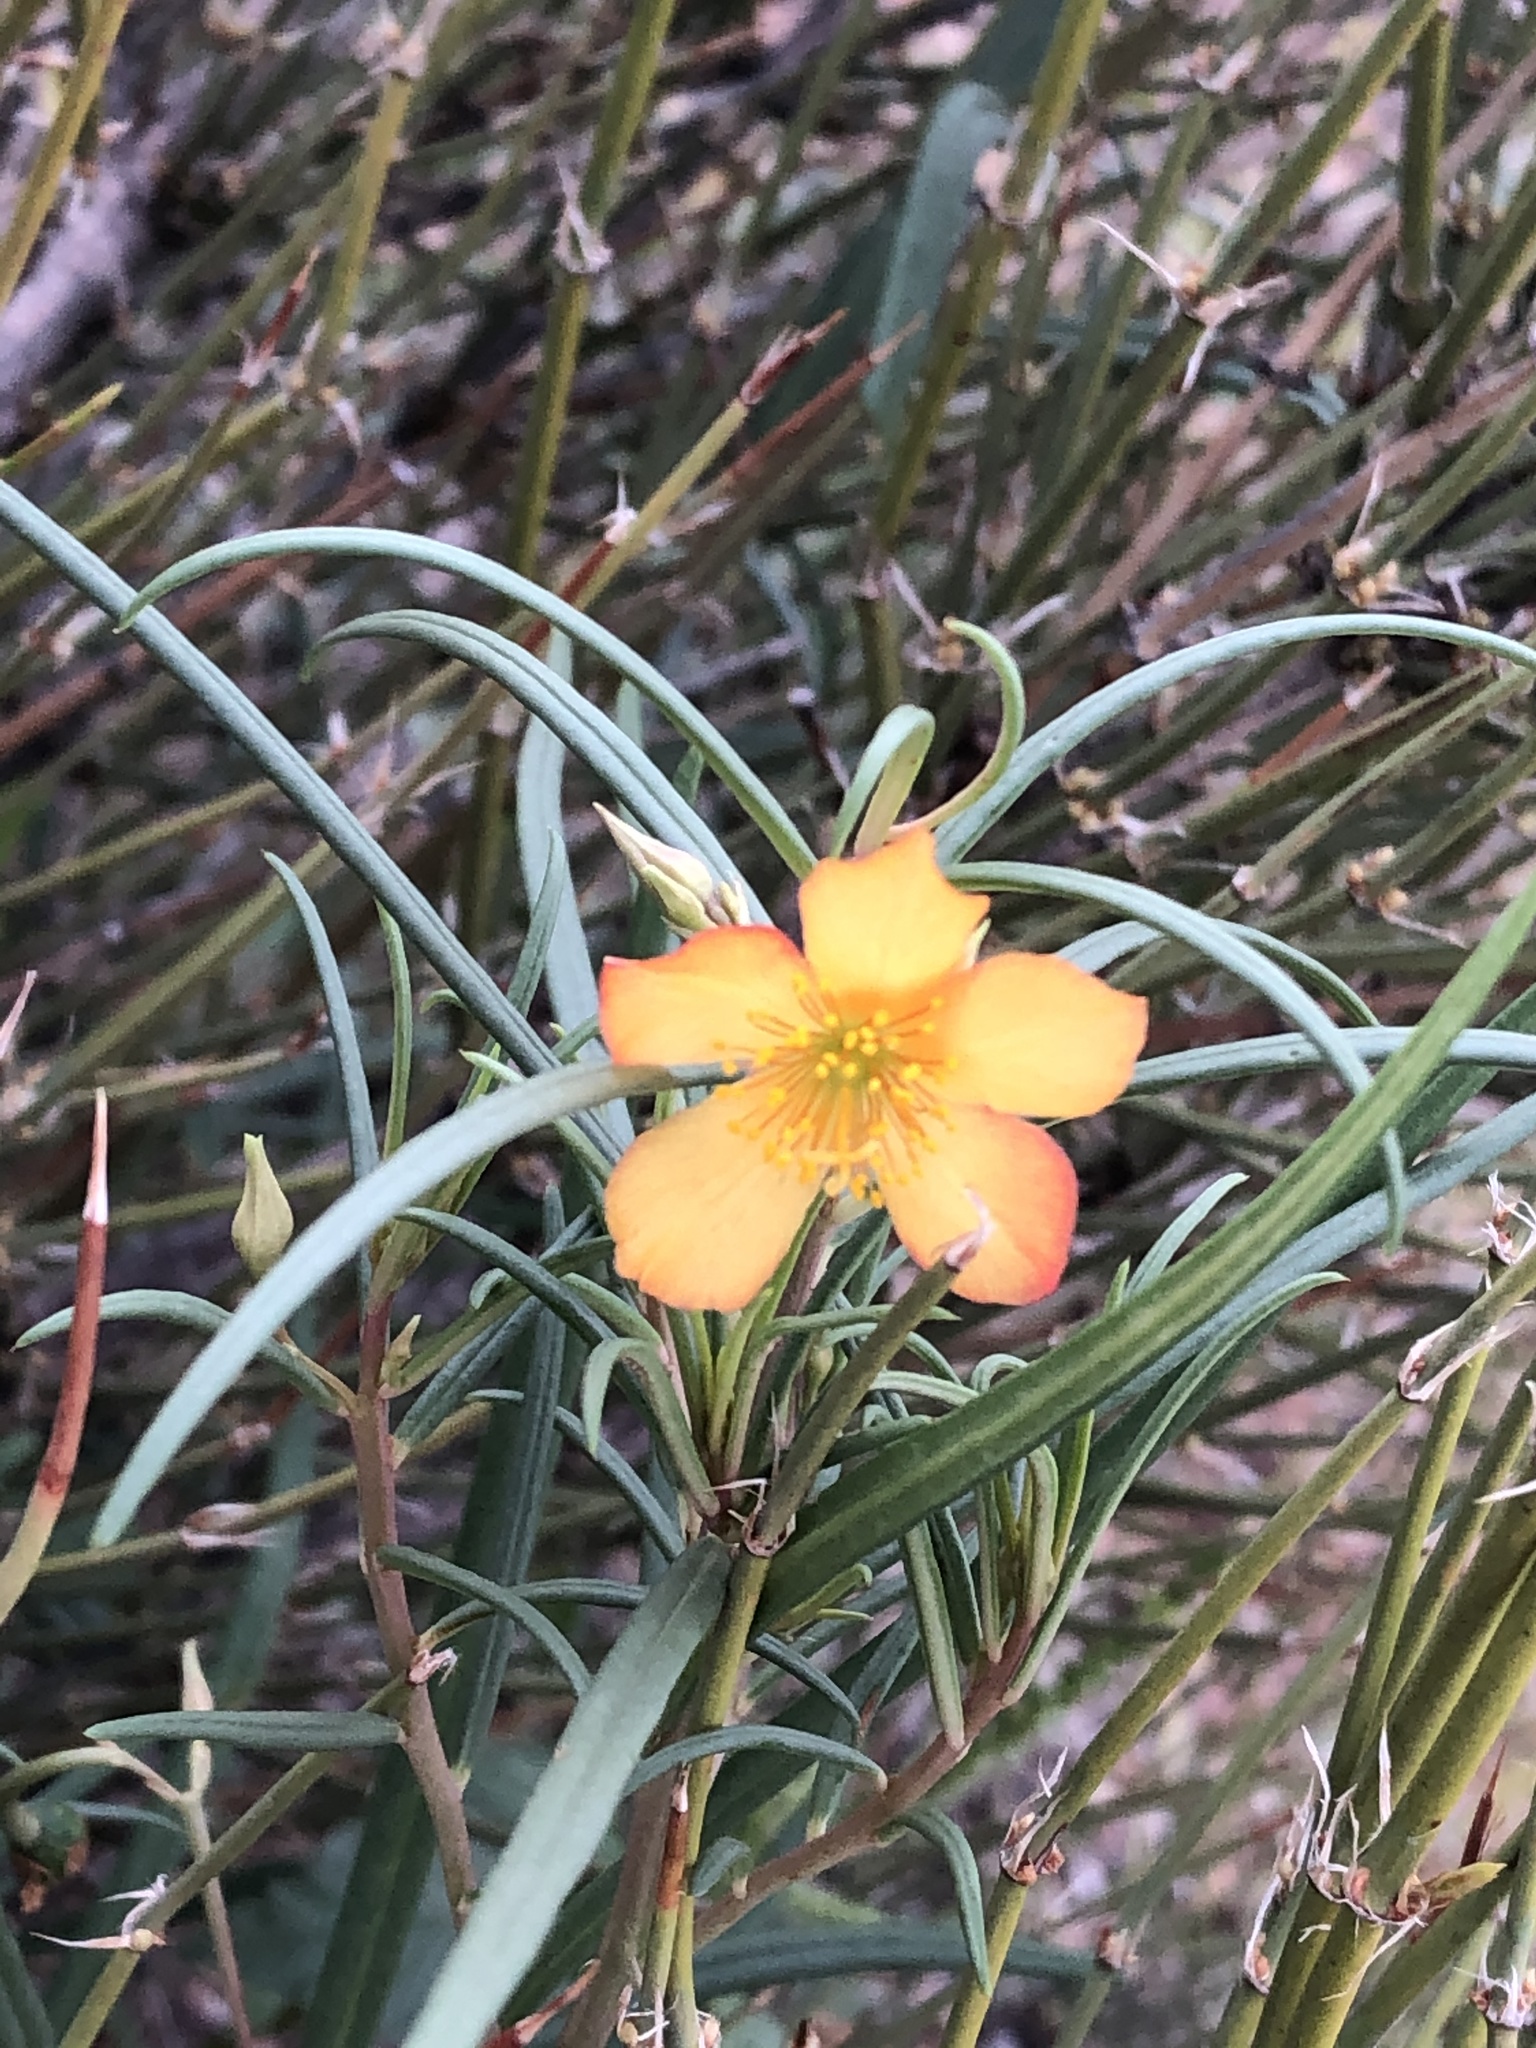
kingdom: Plantae
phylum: Tracheophyta
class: Magnoliopsida
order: Caryophyllales
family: Montiaceae
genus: Phemeranthus
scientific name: Phemeranthus aurantiacus
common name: Orange fameflower
